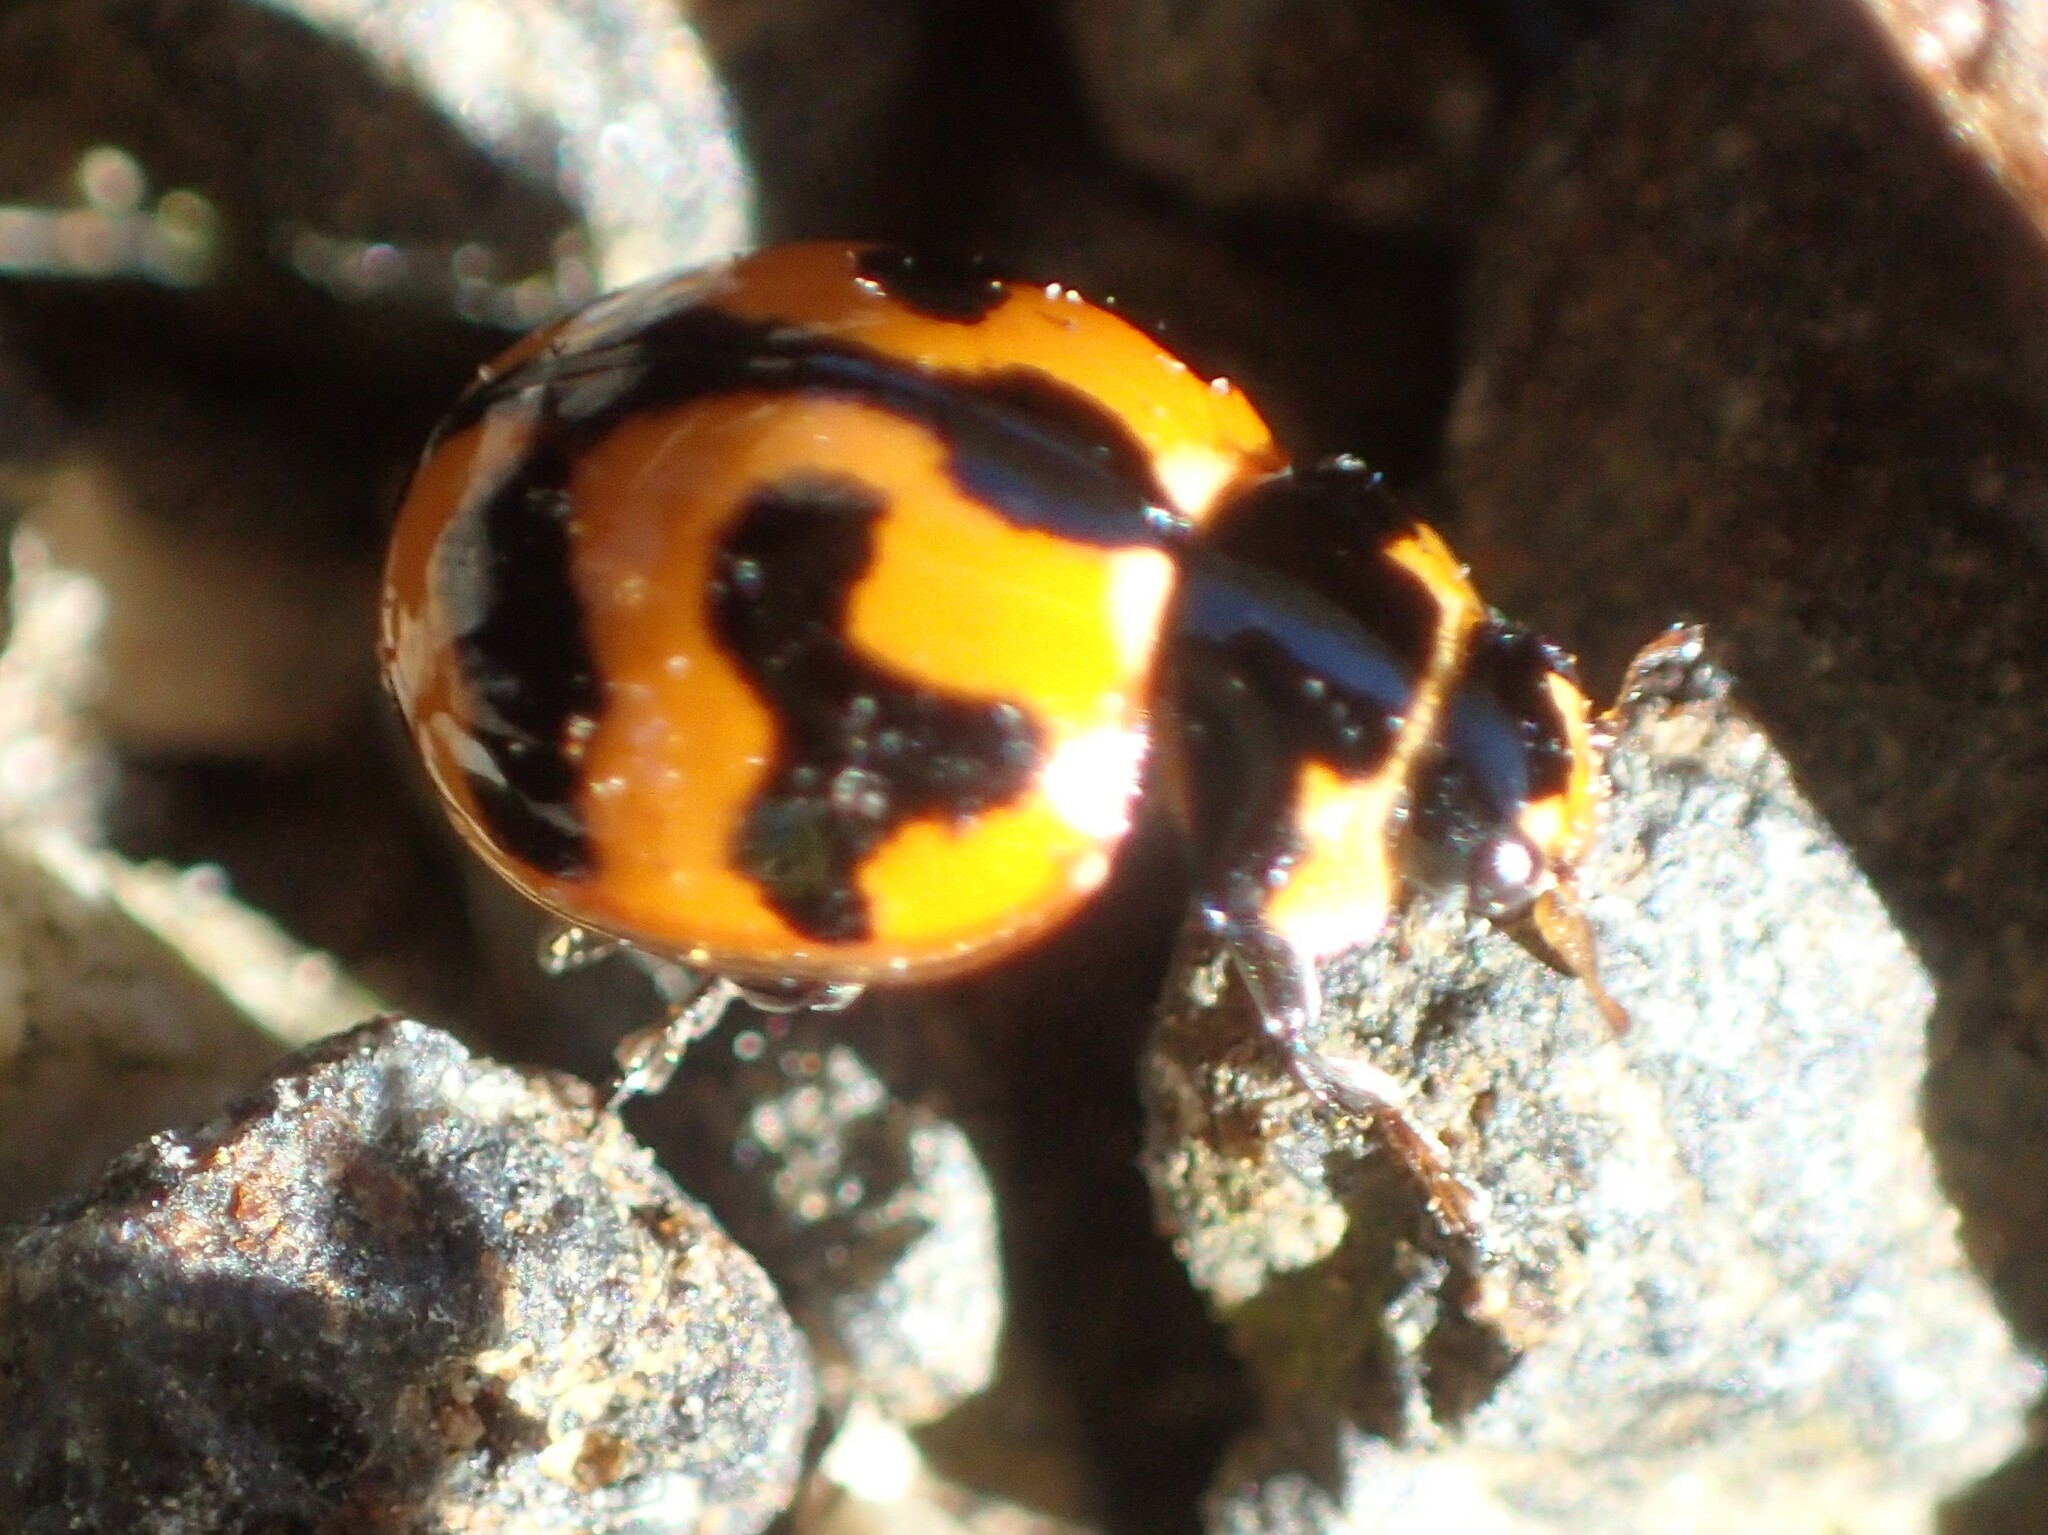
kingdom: Animalia
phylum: Arthropoda
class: Insecta
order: Coleoptera
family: Coccinellidae
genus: Coccinella
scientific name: Coccinella transversalis
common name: Transverse lady beetle
